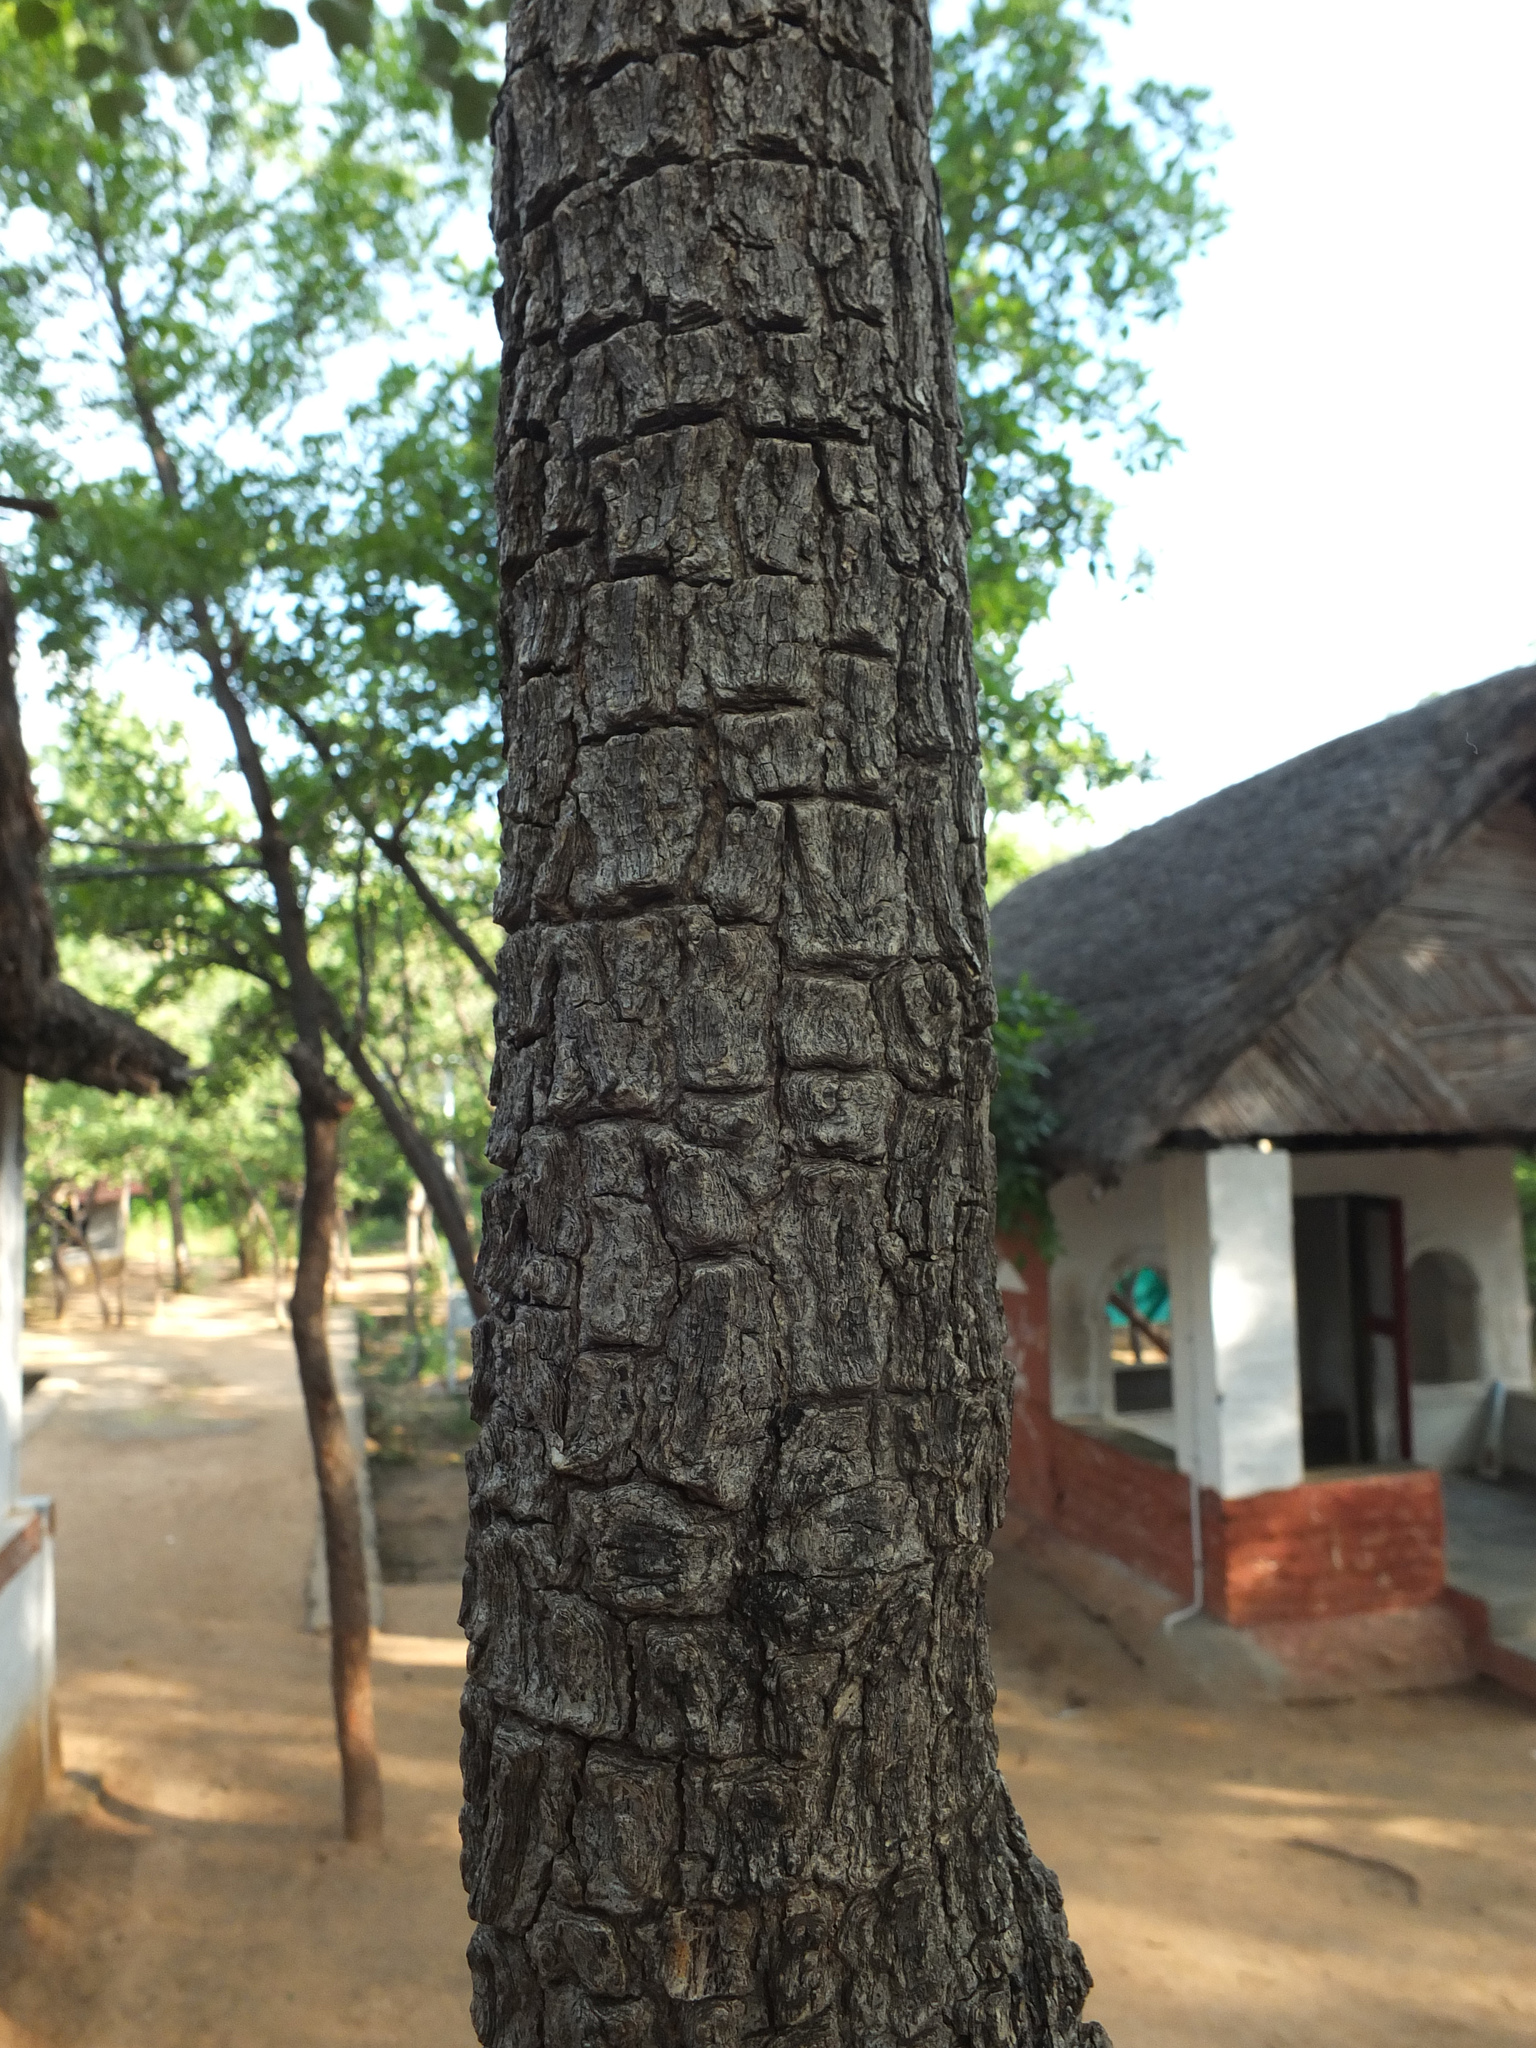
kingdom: Plantae
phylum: Tracheophyta
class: Magnoliopsida
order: Fabales
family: Fabaceae
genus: Pterocarpus
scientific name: Pterocarpus santalinus
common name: Red sanders
